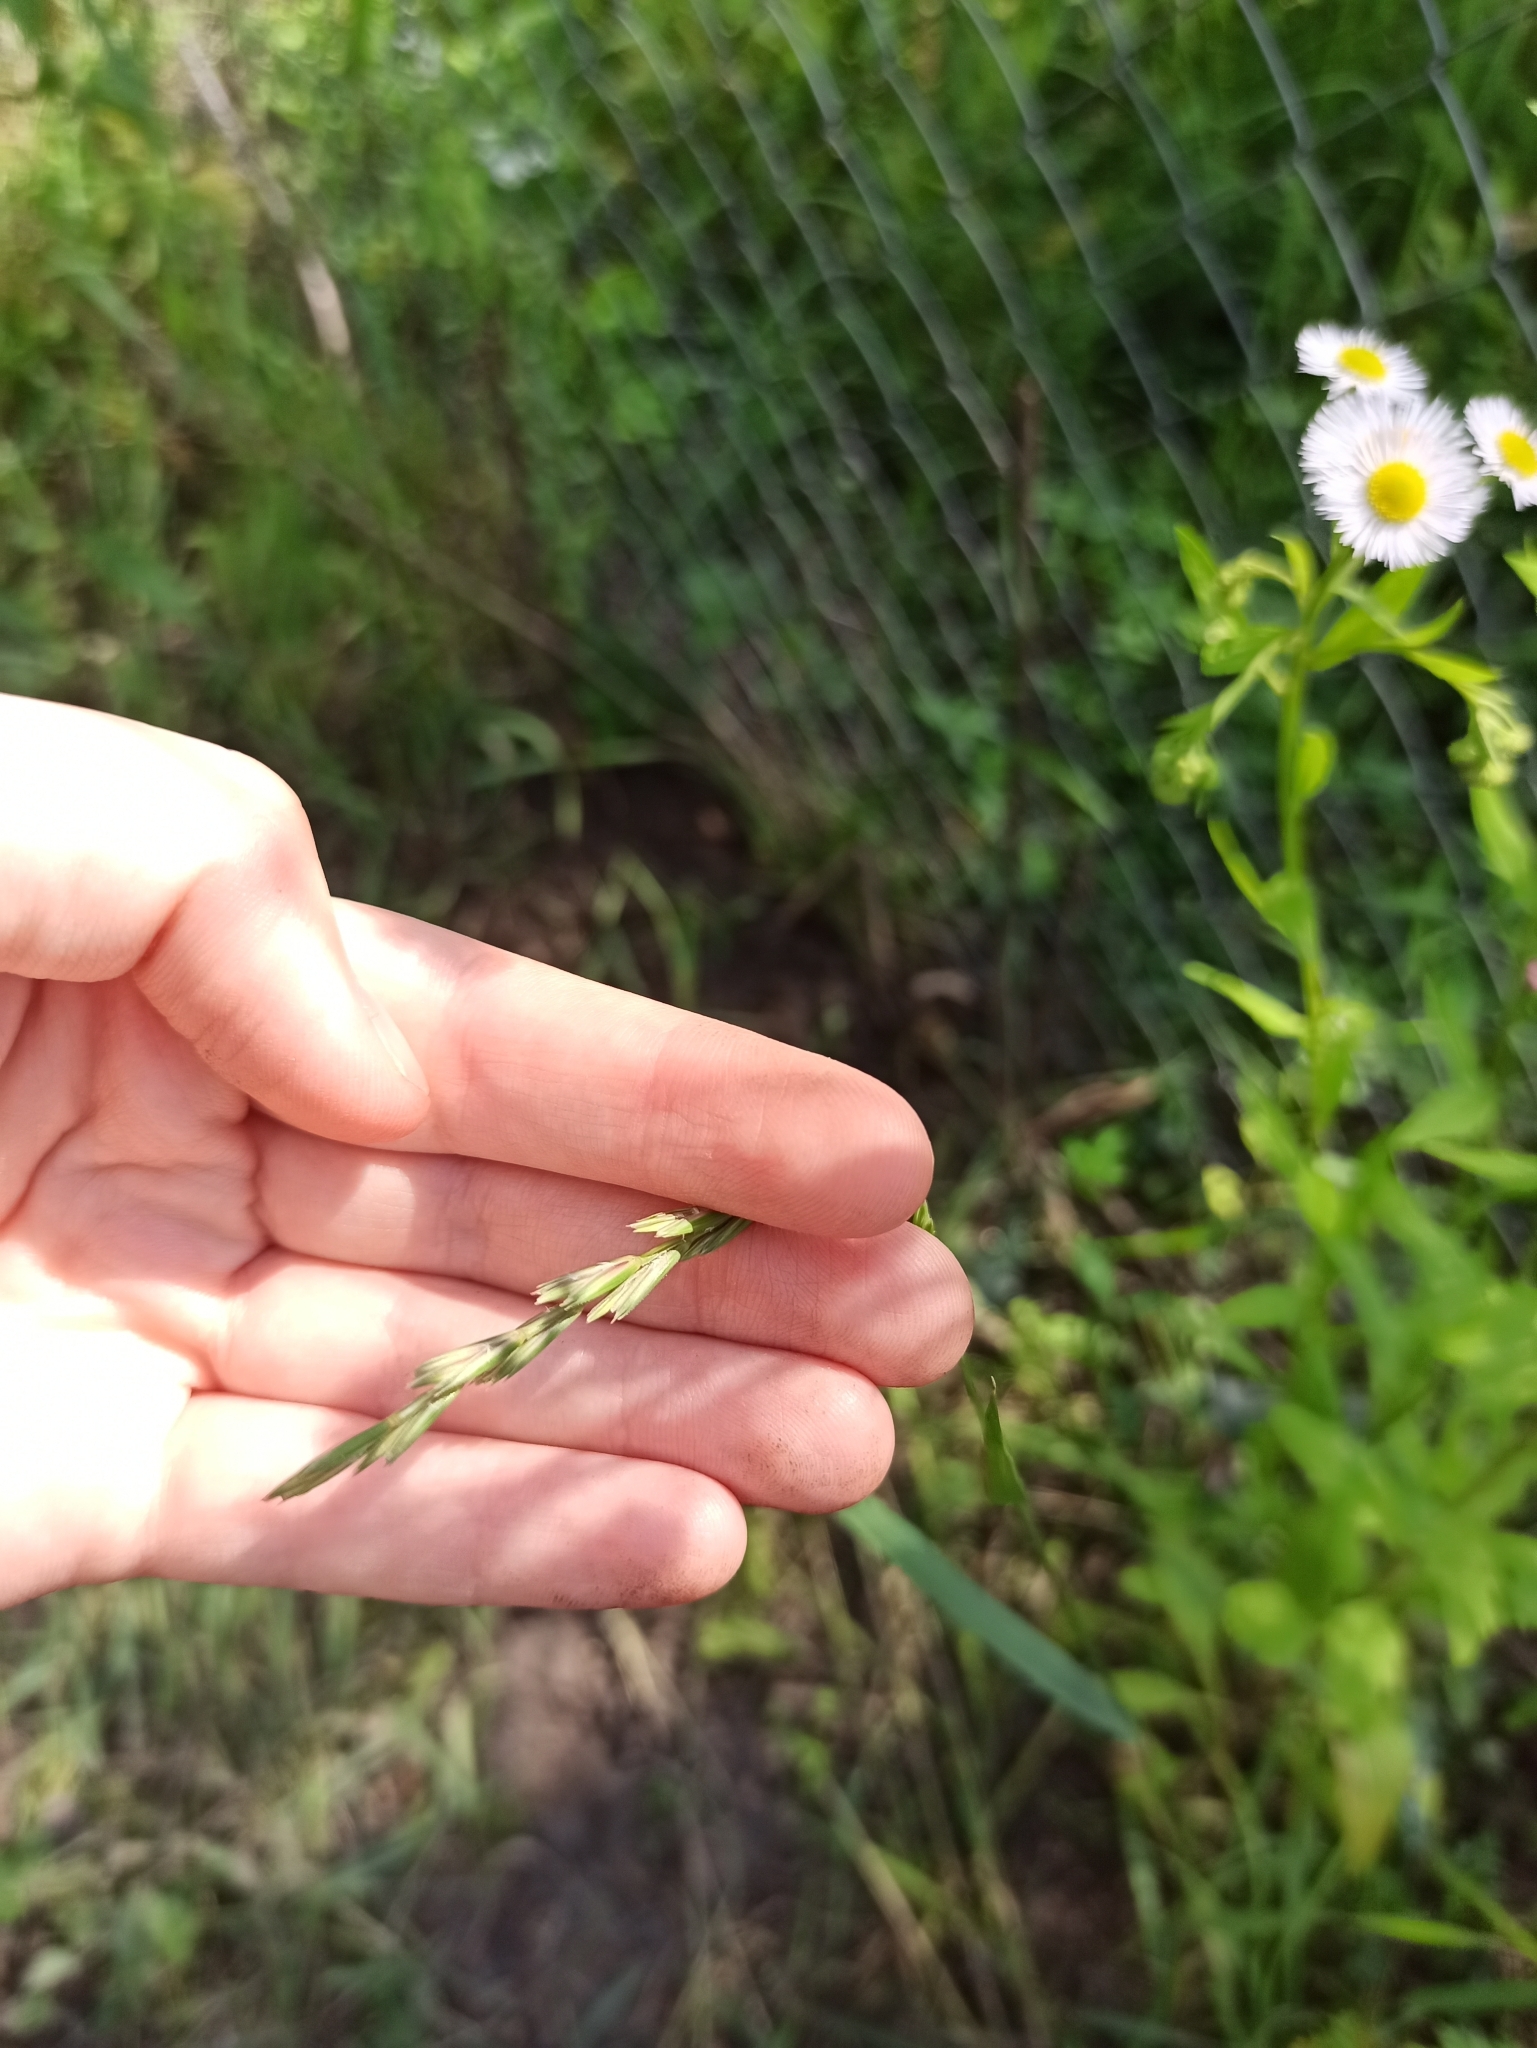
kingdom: Plantae
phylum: Tracheophyta
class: Liliopsida
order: Poales
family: Poaceae
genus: Elymus
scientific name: Elymus repens
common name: Quackgrass
